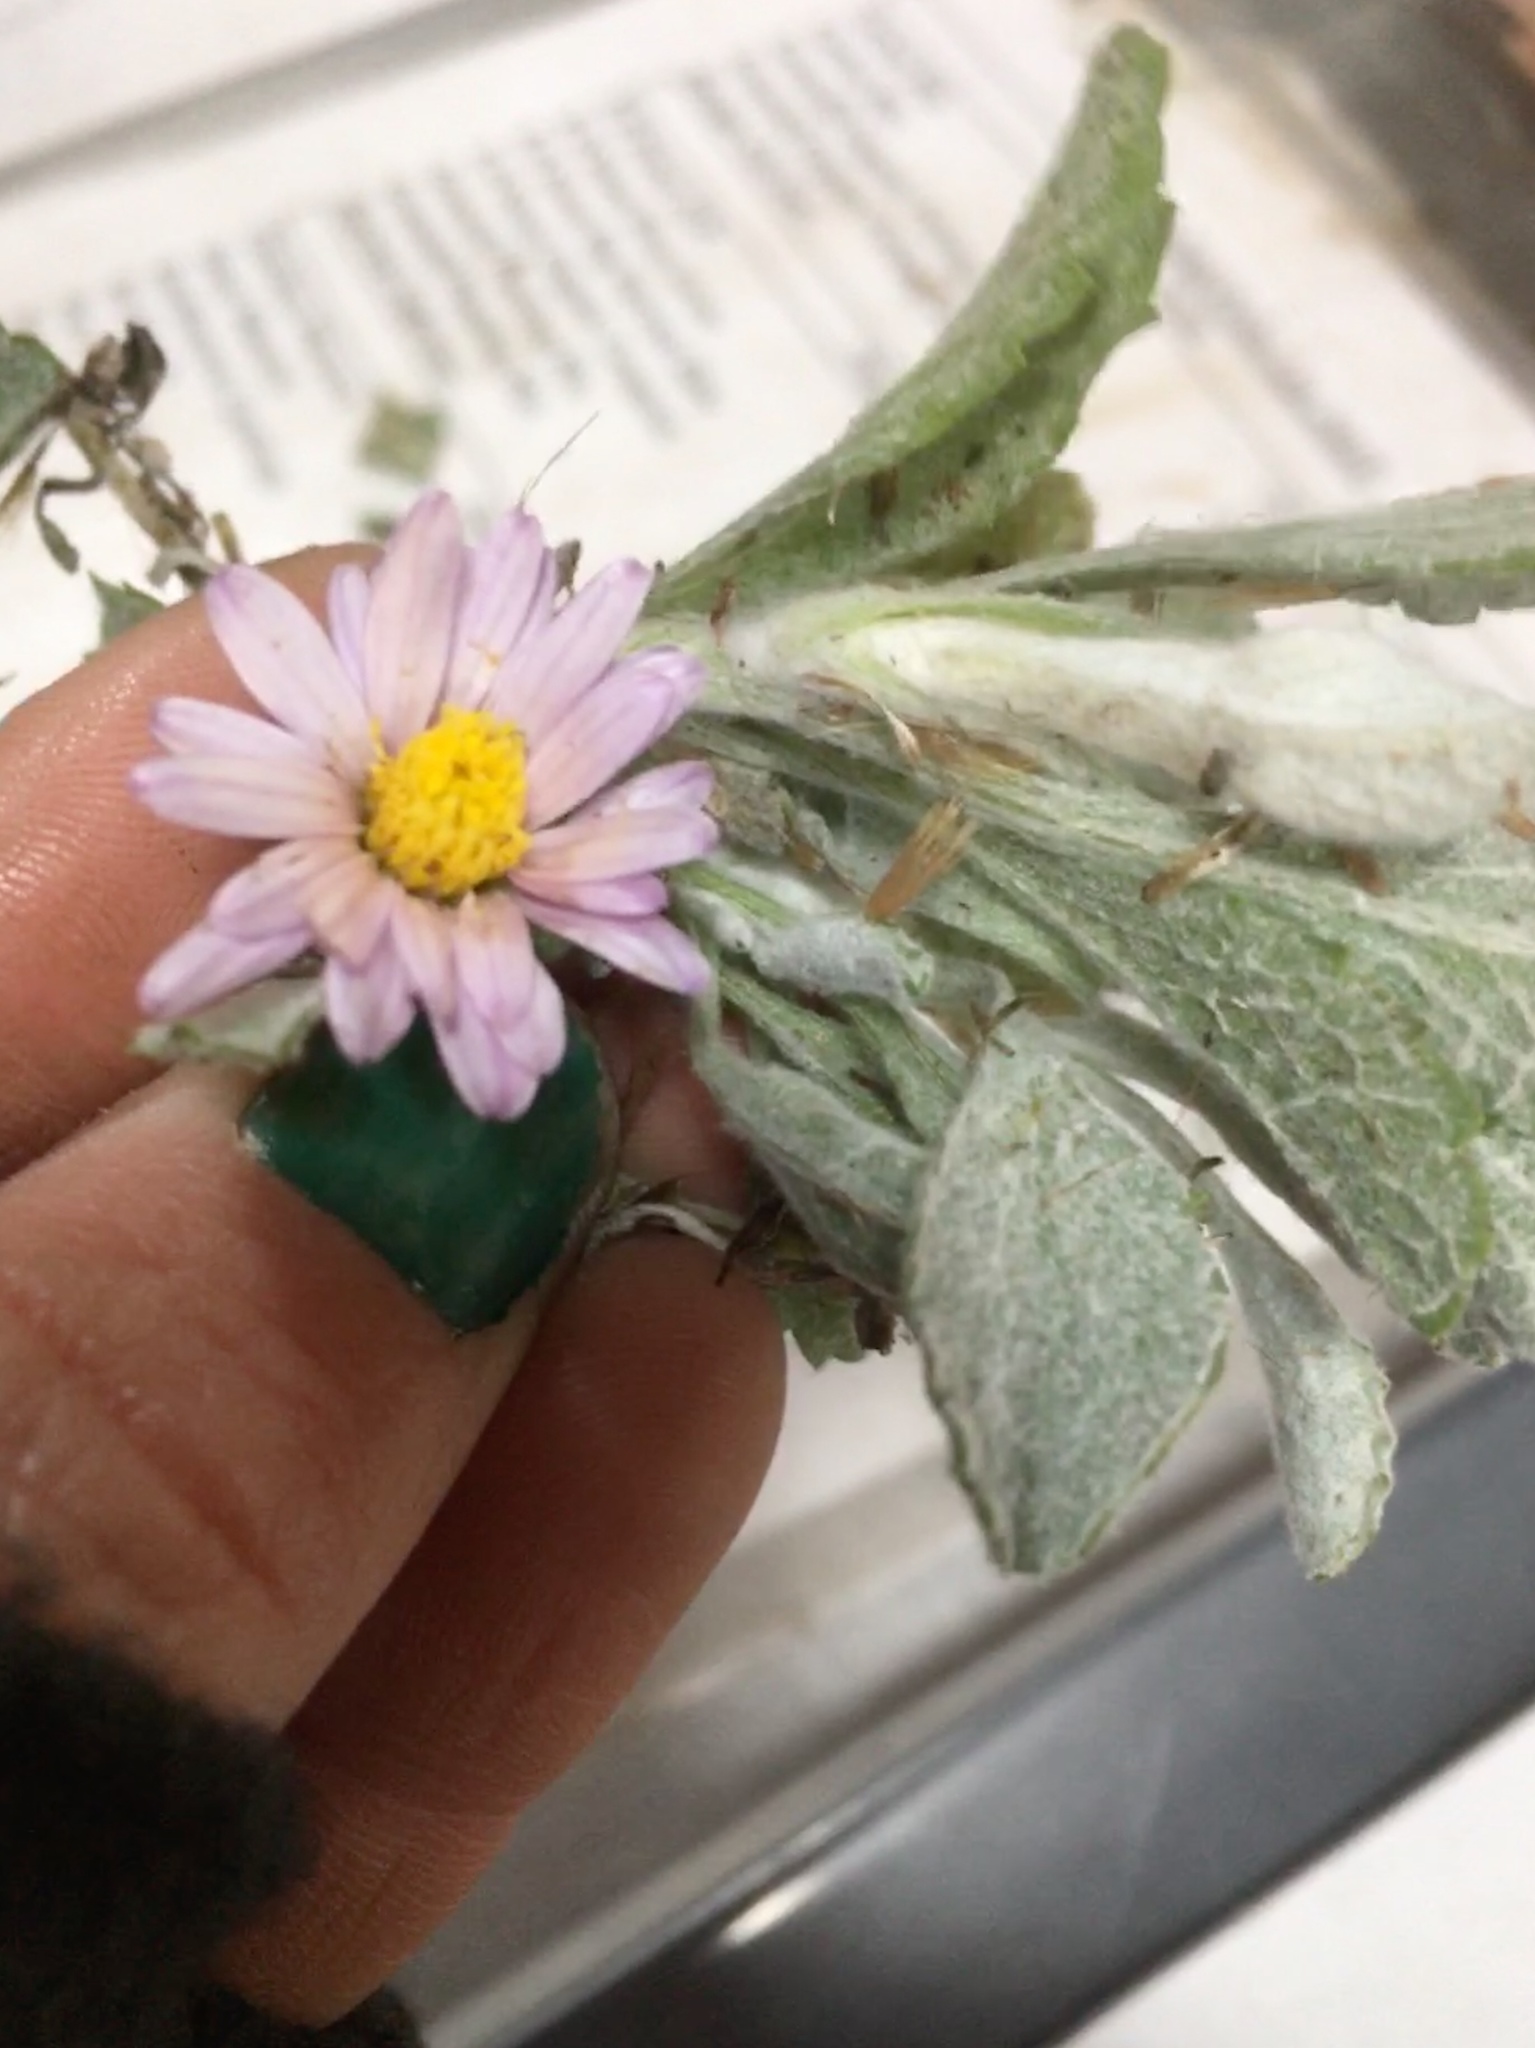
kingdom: Plantae
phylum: Tracheophyta
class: Magnoliopsida
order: Asterales
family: Asteraceae
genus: Corethrogyne
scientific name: Corethrogyne filaginifolia
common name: Sand-aster
